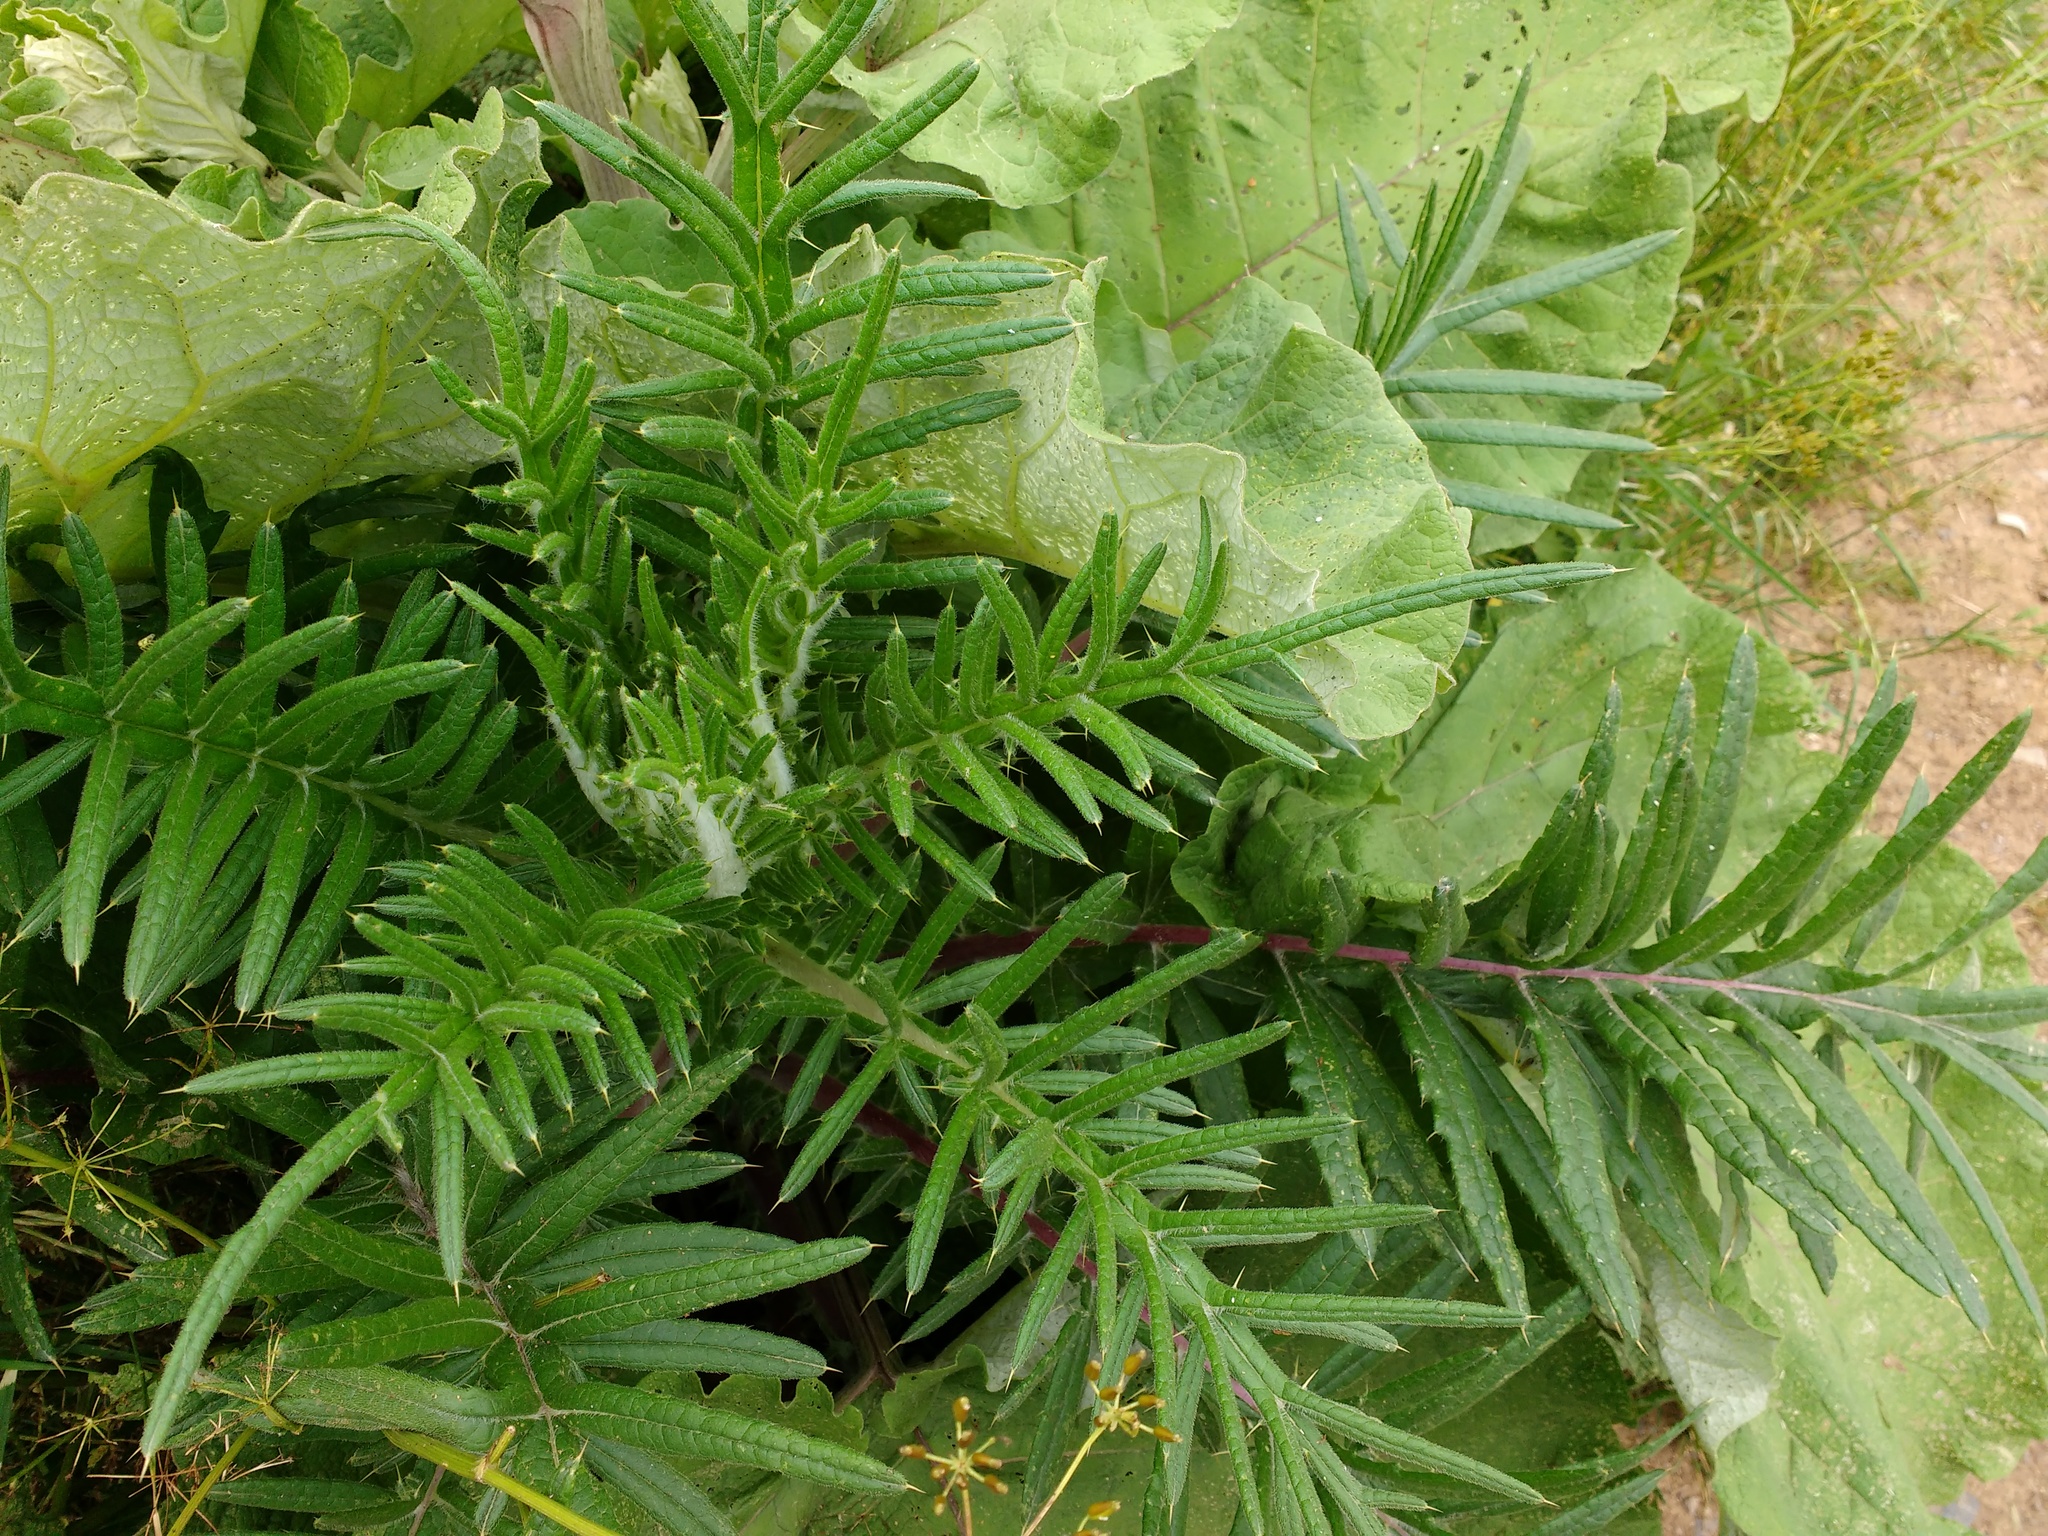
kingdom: Plantae
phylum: Tracheophyta
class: Magnoliopsida
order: Asterales
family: Asteraceae
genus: Lophiolepis
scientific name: Lophiolepis eriophora
